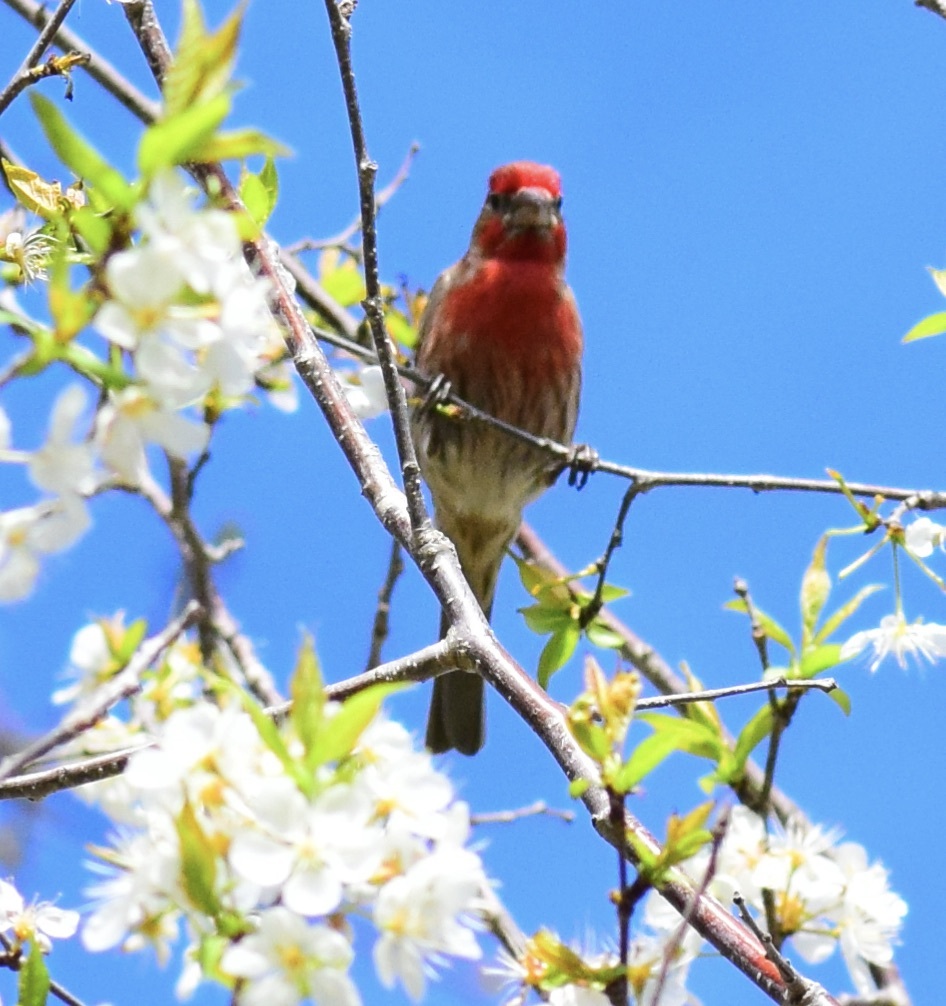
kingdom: Animalia
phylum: Chordata
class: Aves
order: Passeriformes
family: Fringillidae
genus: Haemorhous
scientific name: Haemorhous mexicanus
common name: House finch
